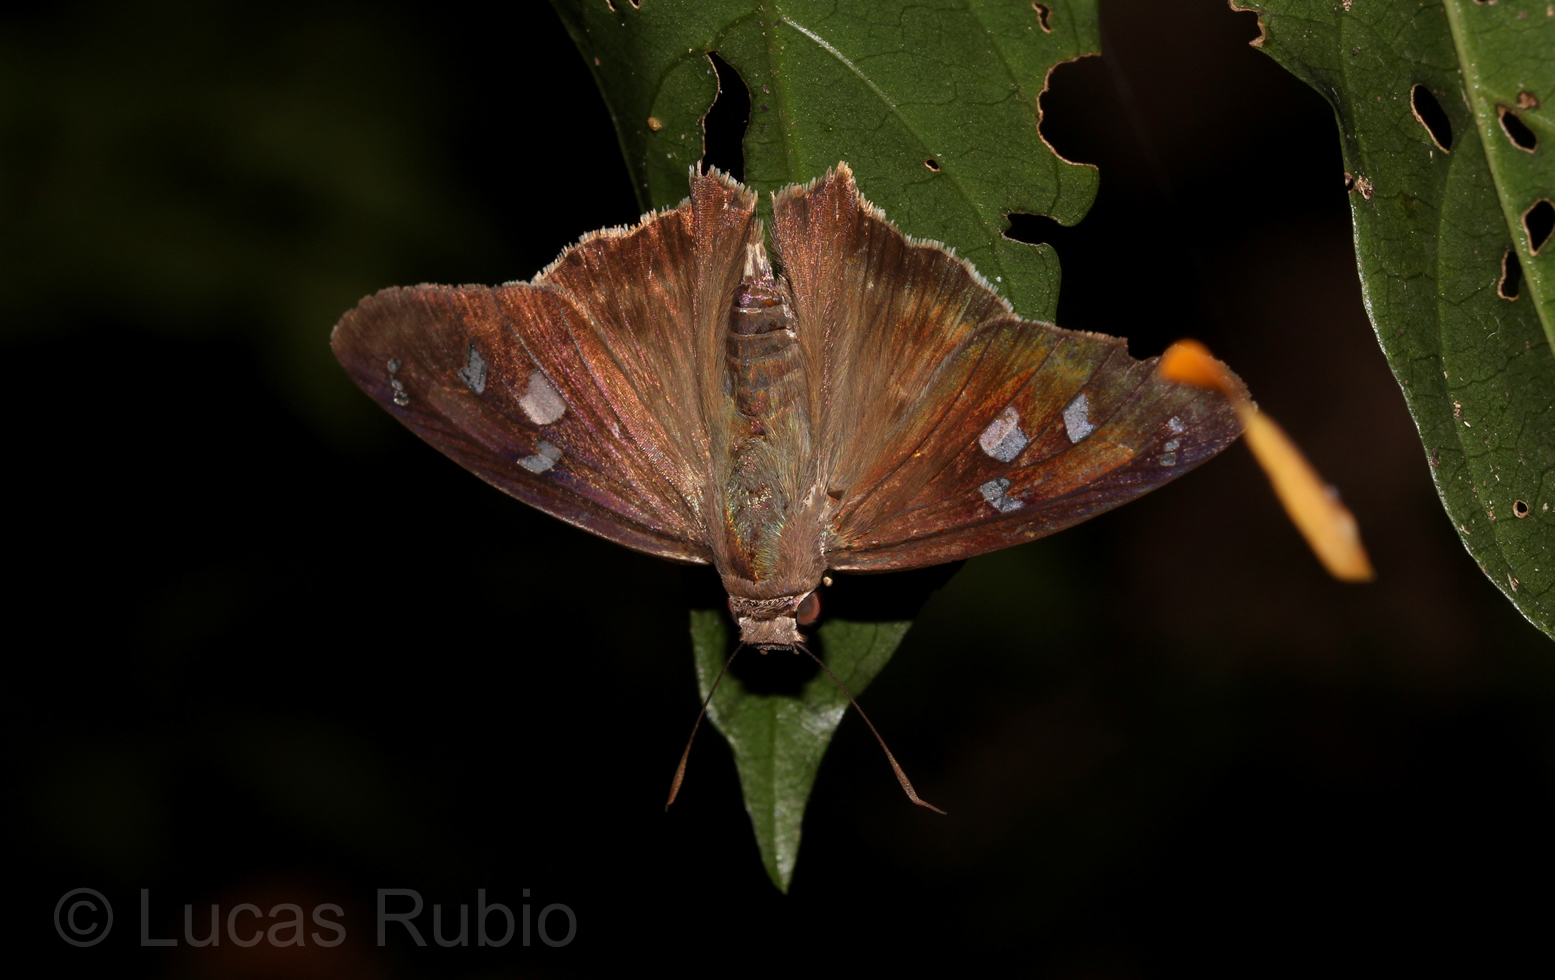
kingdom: Animalia
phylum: Arthropoda
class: Insecta
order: Lepidoptera
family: Hesperiidae
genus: Polygonus
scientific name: Polygonus leo
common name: Hammoch skipper
